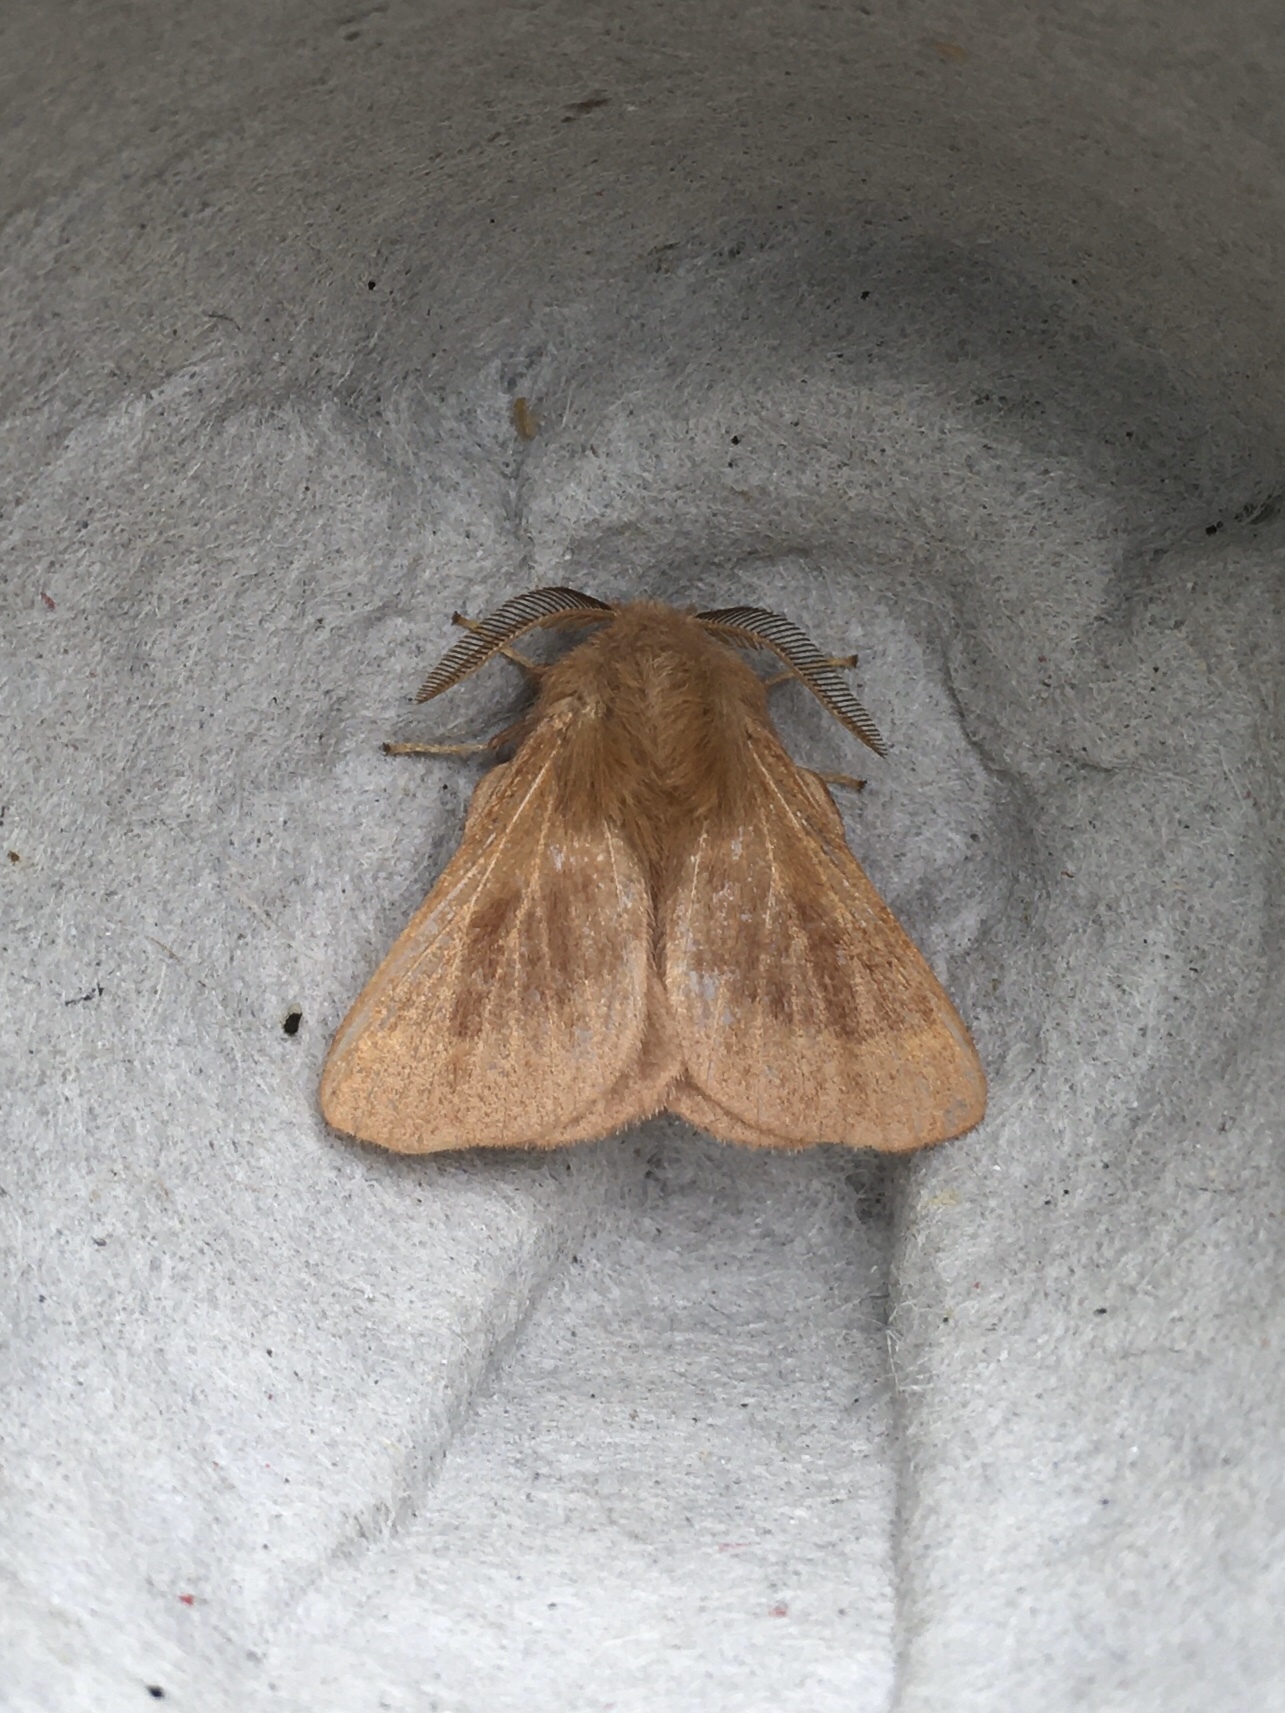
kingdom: Animalia
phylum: Arthropoda
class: Insecta
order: Lepidoptera
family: Lasiocampidae
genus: Malacosoma
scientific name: Malacosoma disstria
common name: Forest tent caterpillar
